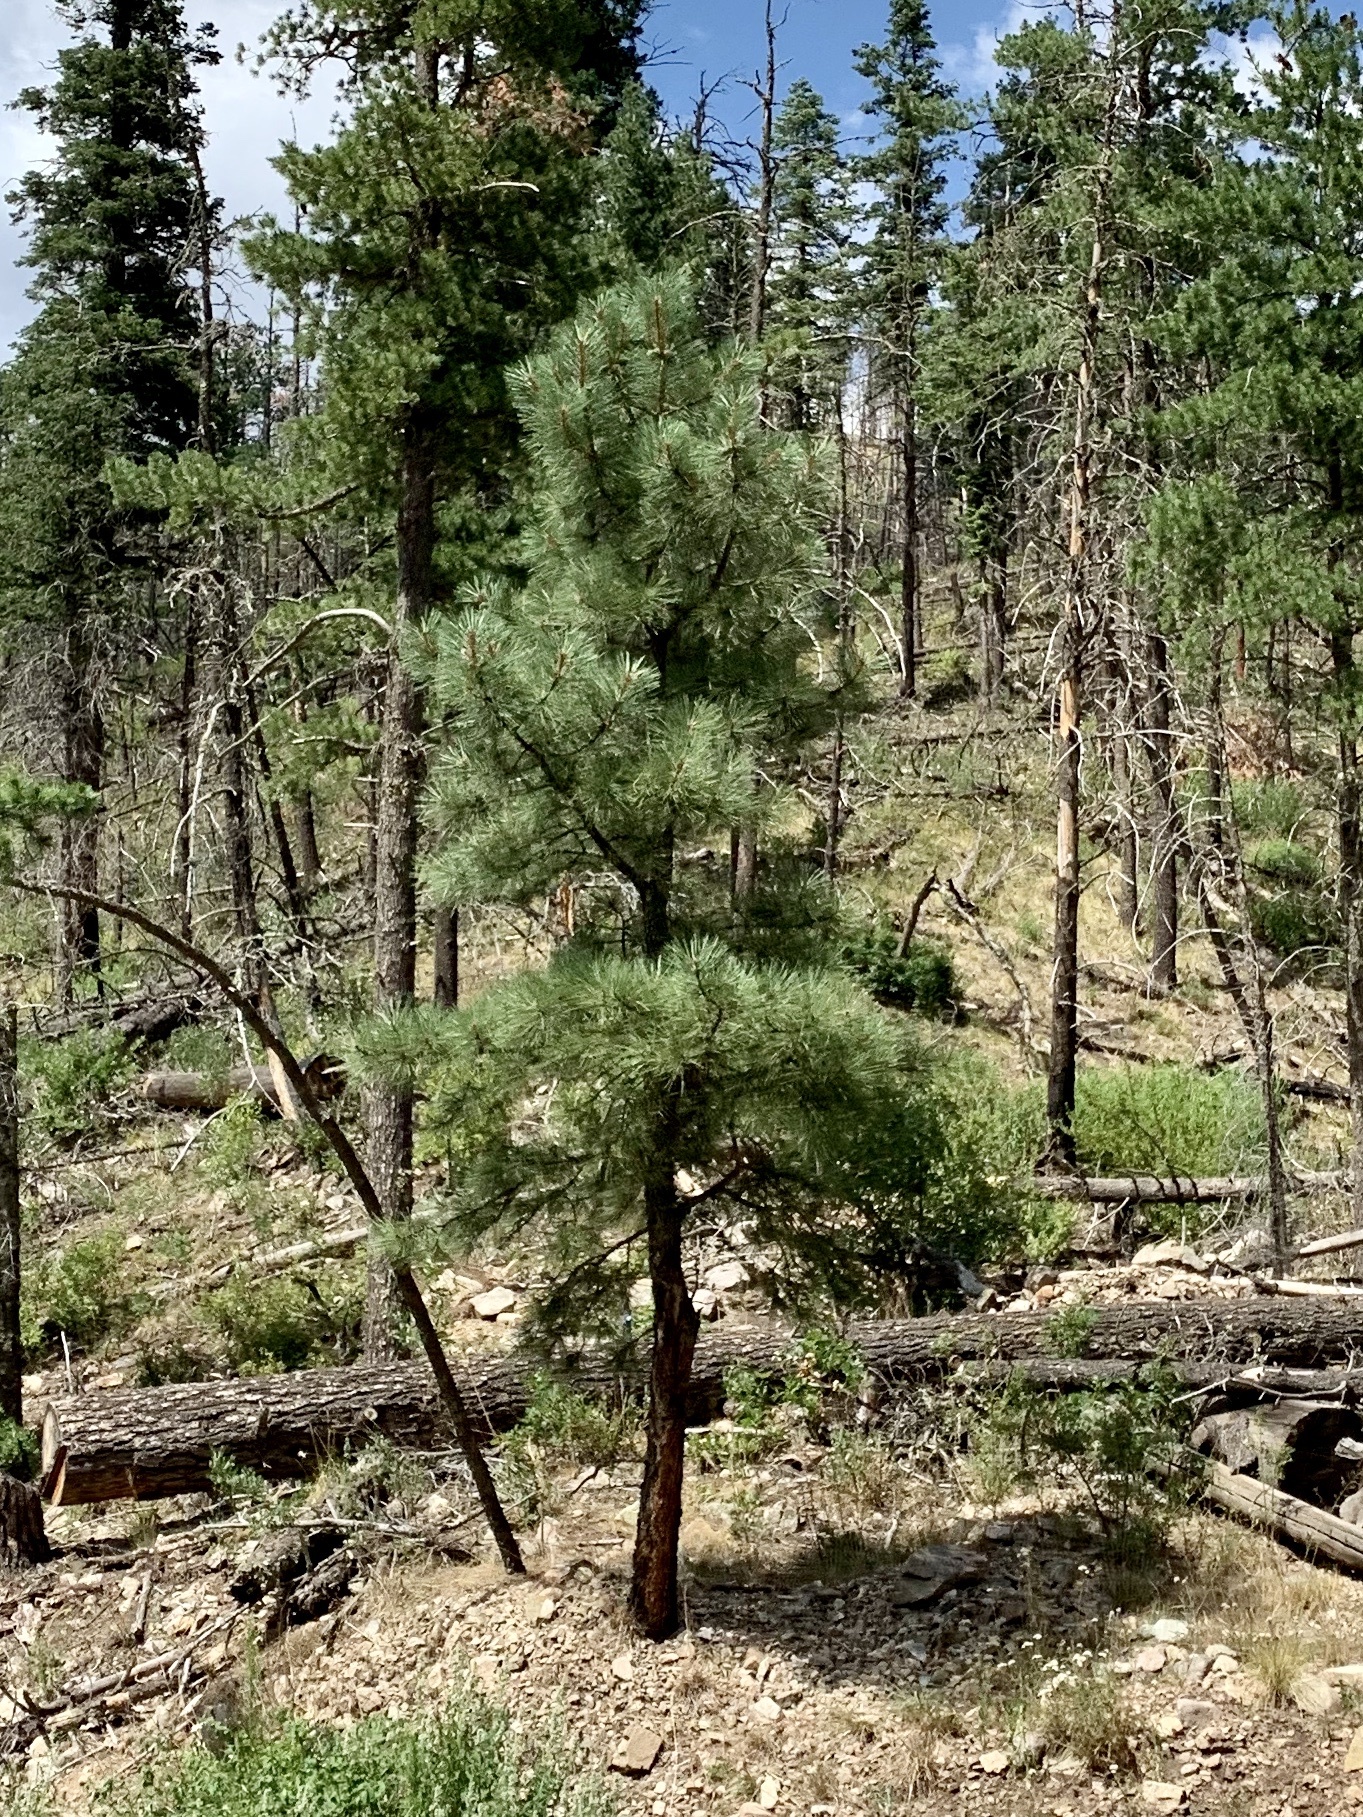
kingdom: Plantae
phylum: Tracheophyta
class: Pinopsida
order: Pinales
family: Pinaceae
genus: Pinus
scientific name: Pinus ponderosa
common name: Western yellow-pine
